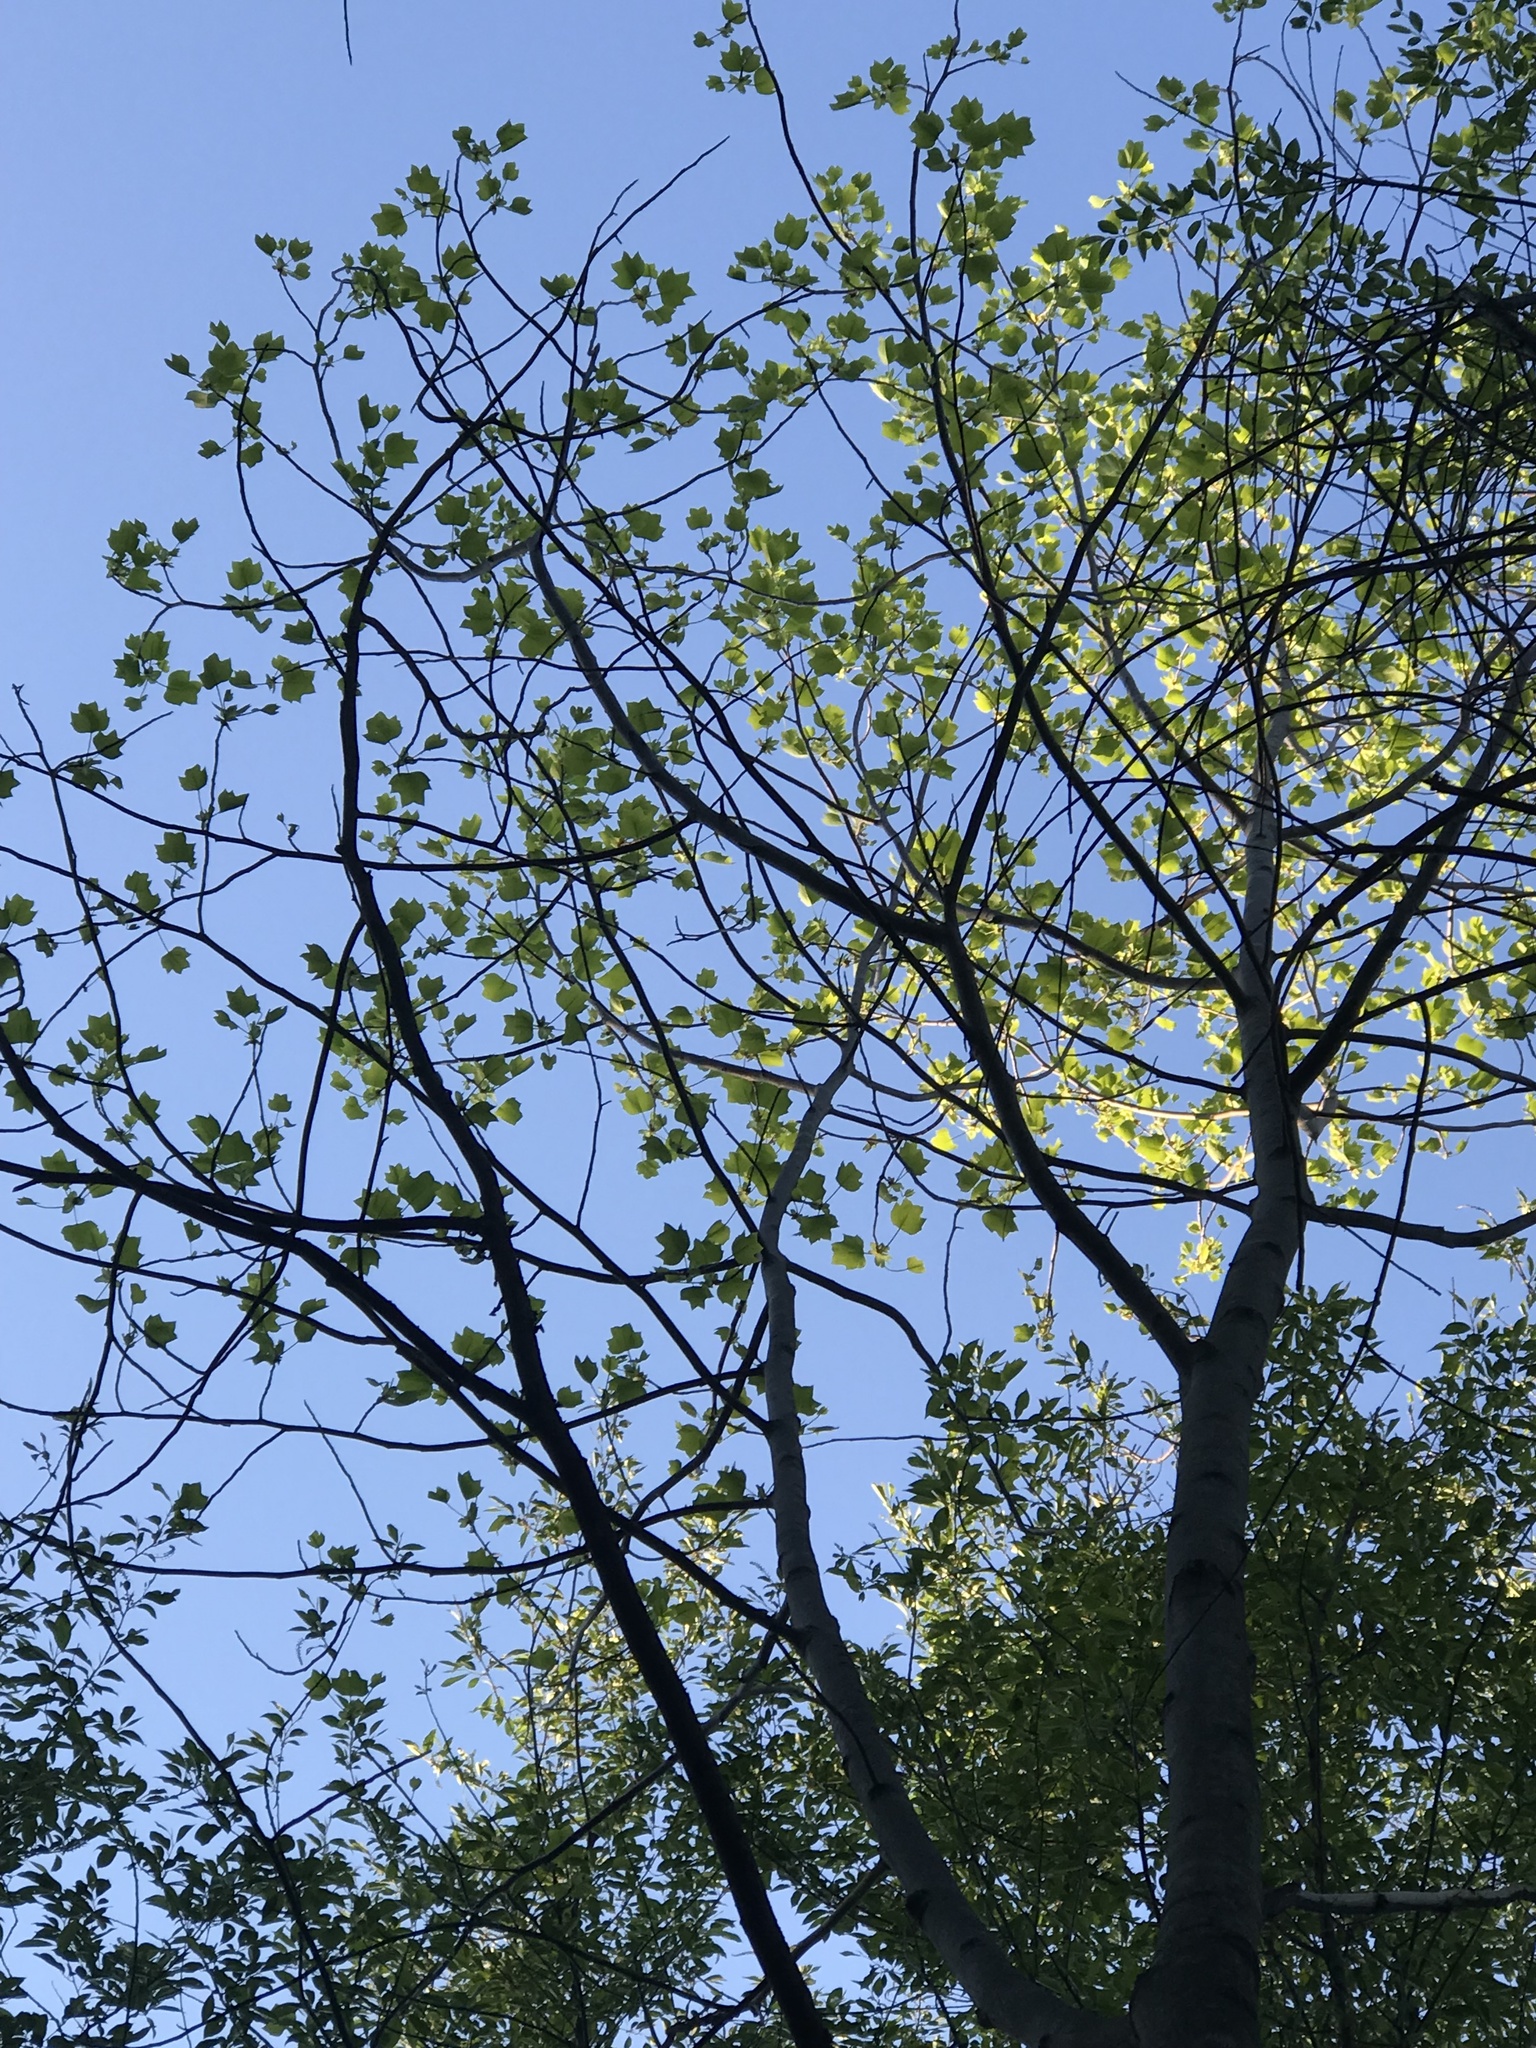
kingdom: Plantae
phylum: Tracheophyta
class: Magnoliopsida
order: Magnoliales
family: Magnoliaceae
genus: Liriodendron
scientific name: Liriodendron tulipifera
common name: Tulip tree
